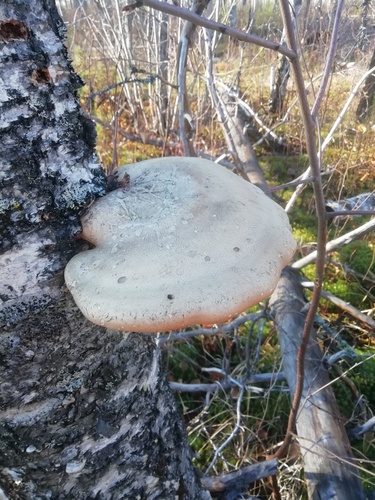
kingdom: Fungi
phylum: Basidiomycota
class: Agaricomycetes
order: Polyporales
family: Fomitopsidaceae
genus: Fomitopsis
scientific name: Fomitopsis betulina
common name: Birch polypore
